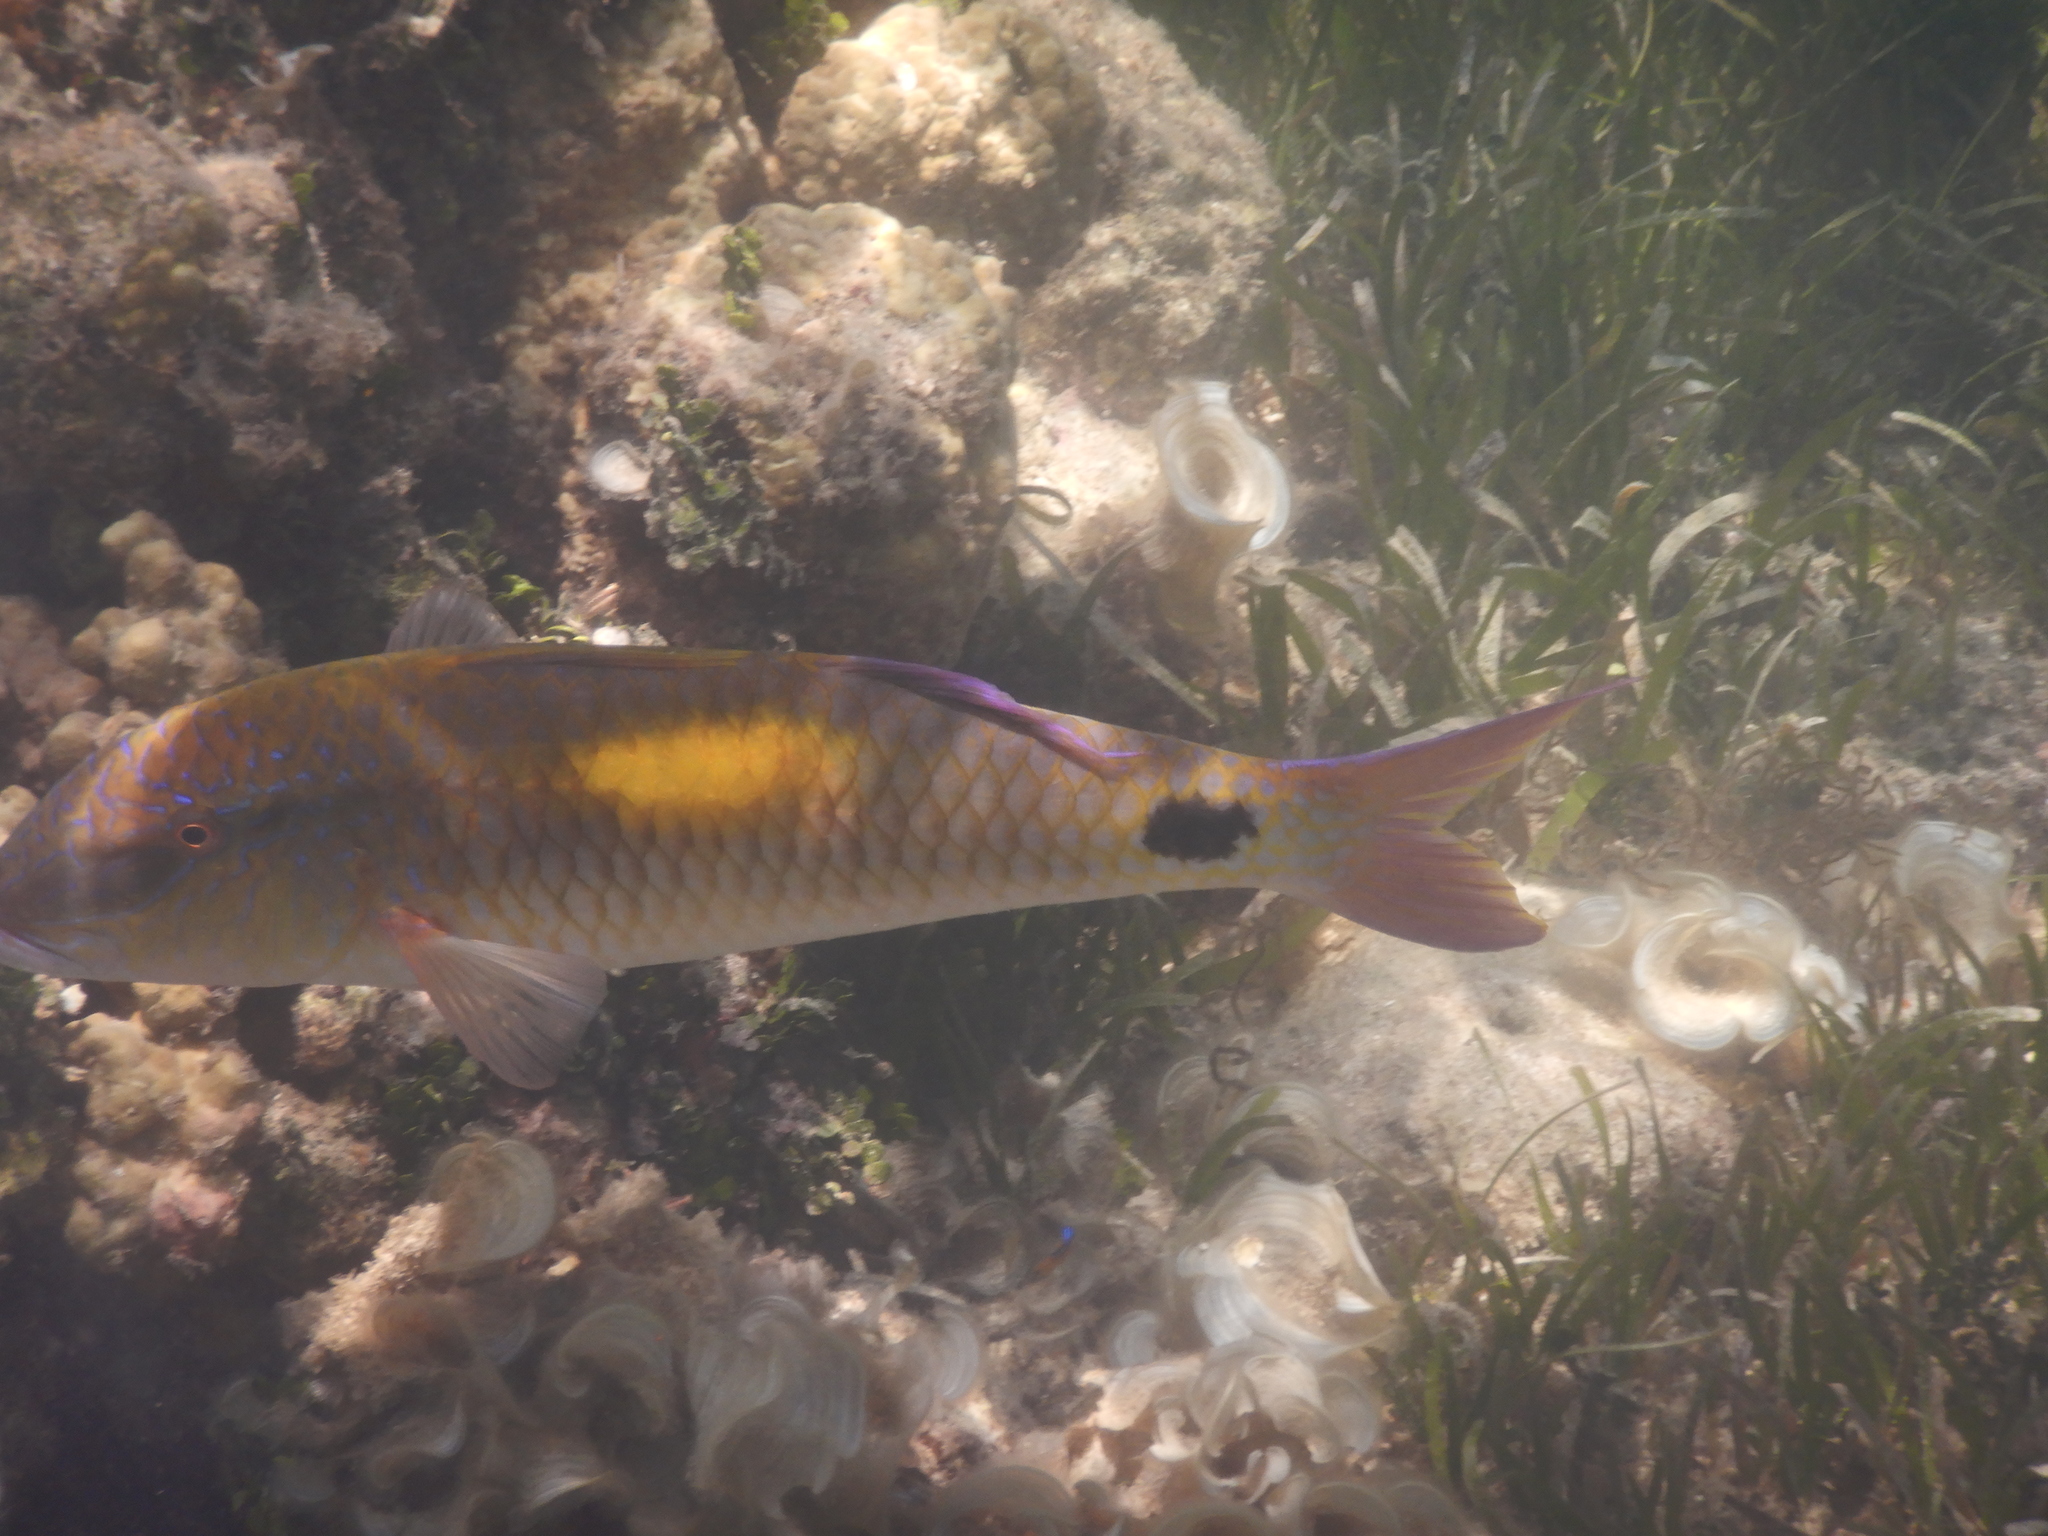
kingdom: Animalia
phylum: Chordata
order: Perciformes
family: Mullidae
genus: Parupeneus
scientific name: Parupeneus indicus
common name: Indian goatfish
